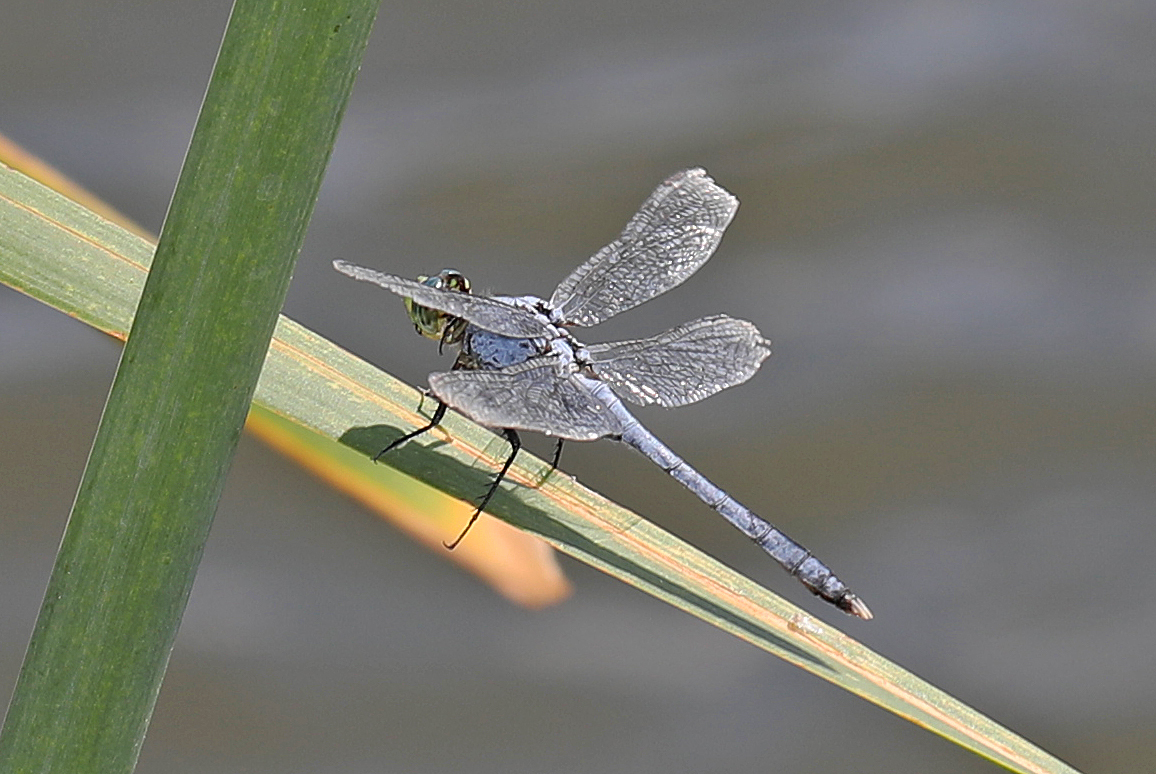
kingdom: Animalia
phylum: Arthropoda
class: Insecta
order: Odonata
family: Libellulidae
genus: Erythemis
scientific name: Erythemis simplicicollis
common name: Eastern pondhawk
